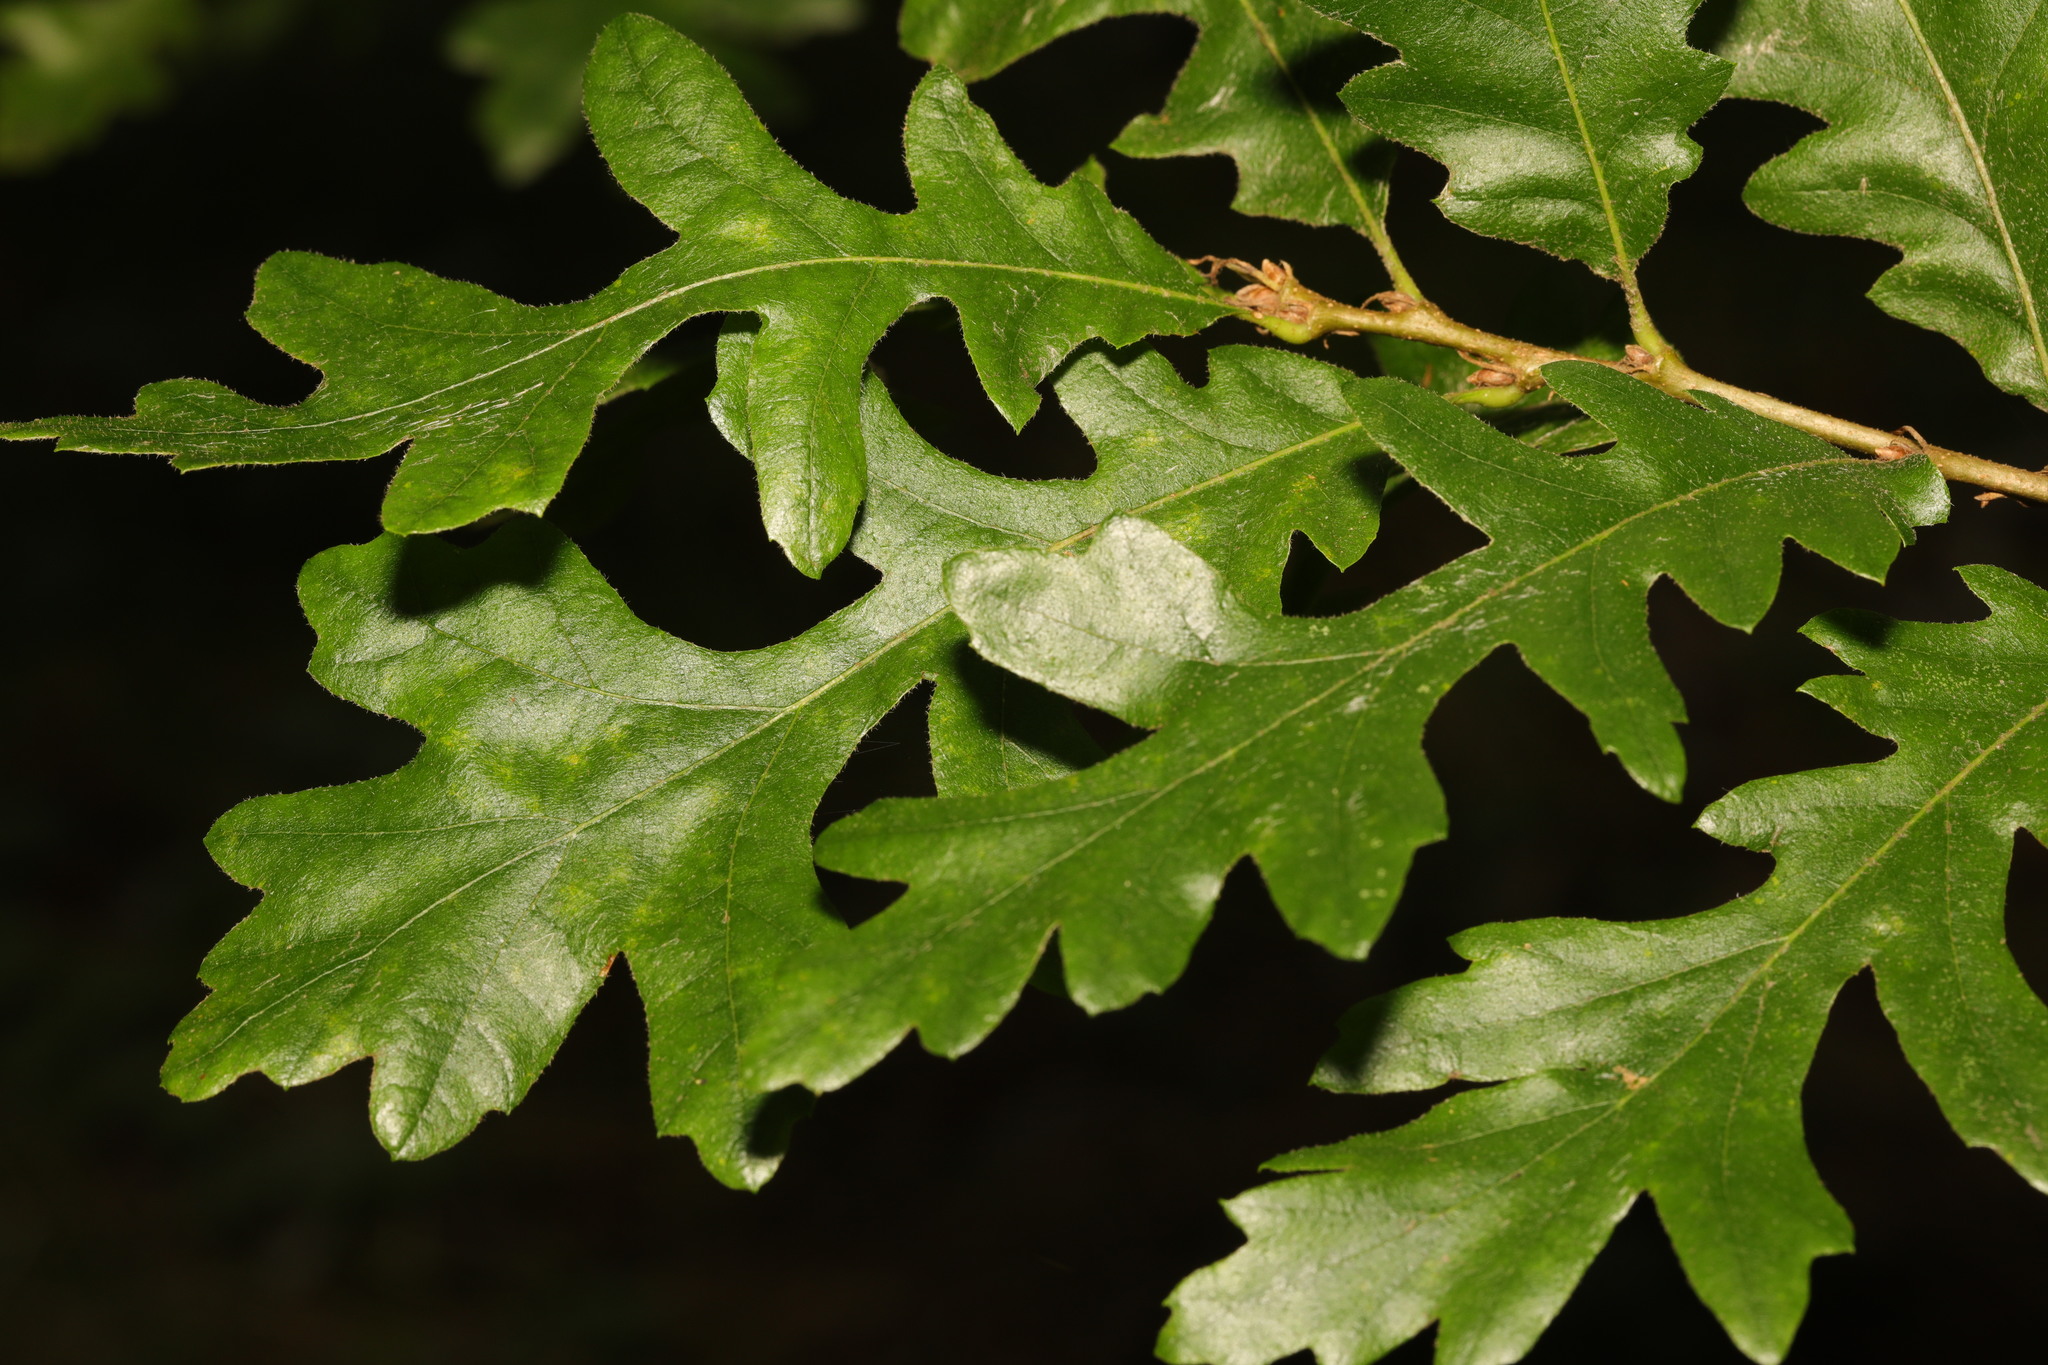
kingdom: Plantae
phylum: Tracheophyta
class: Magnoliopsida
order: Fagales
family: Fagaceae
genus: Quercus
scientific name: Quercus cerris
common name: Turkey oak
